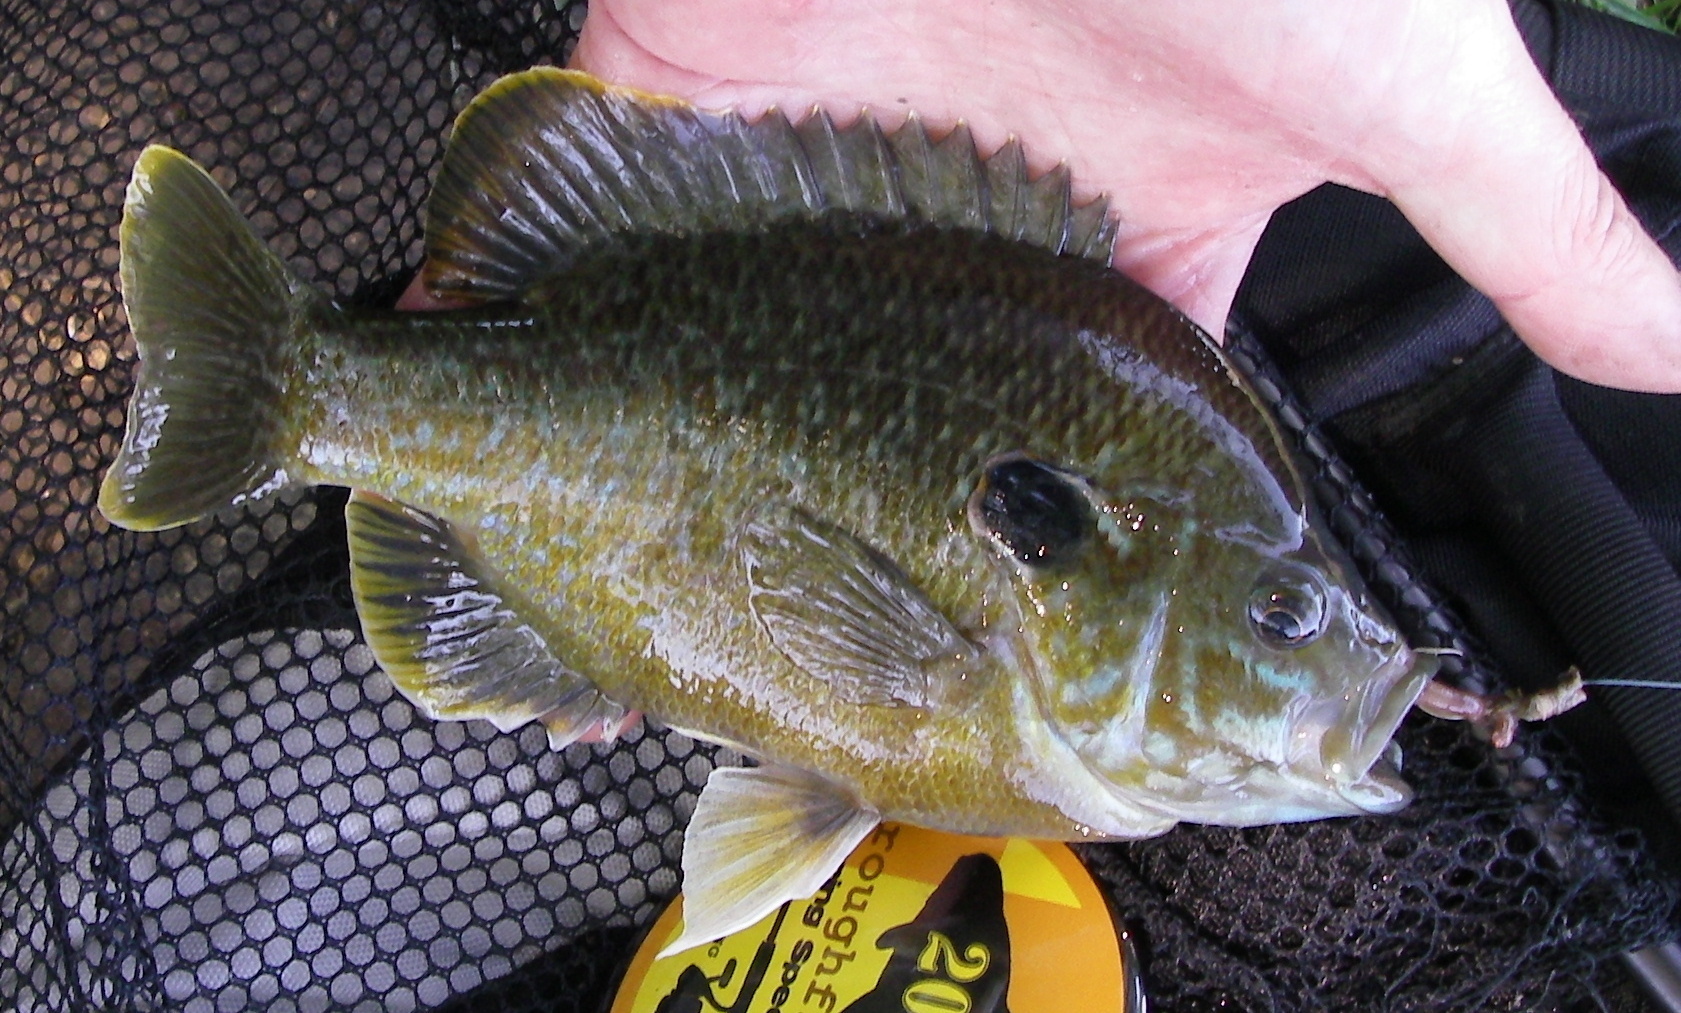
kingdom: Animalia
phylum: Chordata
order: Perciformes
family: Centrarchidae
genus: Lepomis
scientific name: Lepomis
